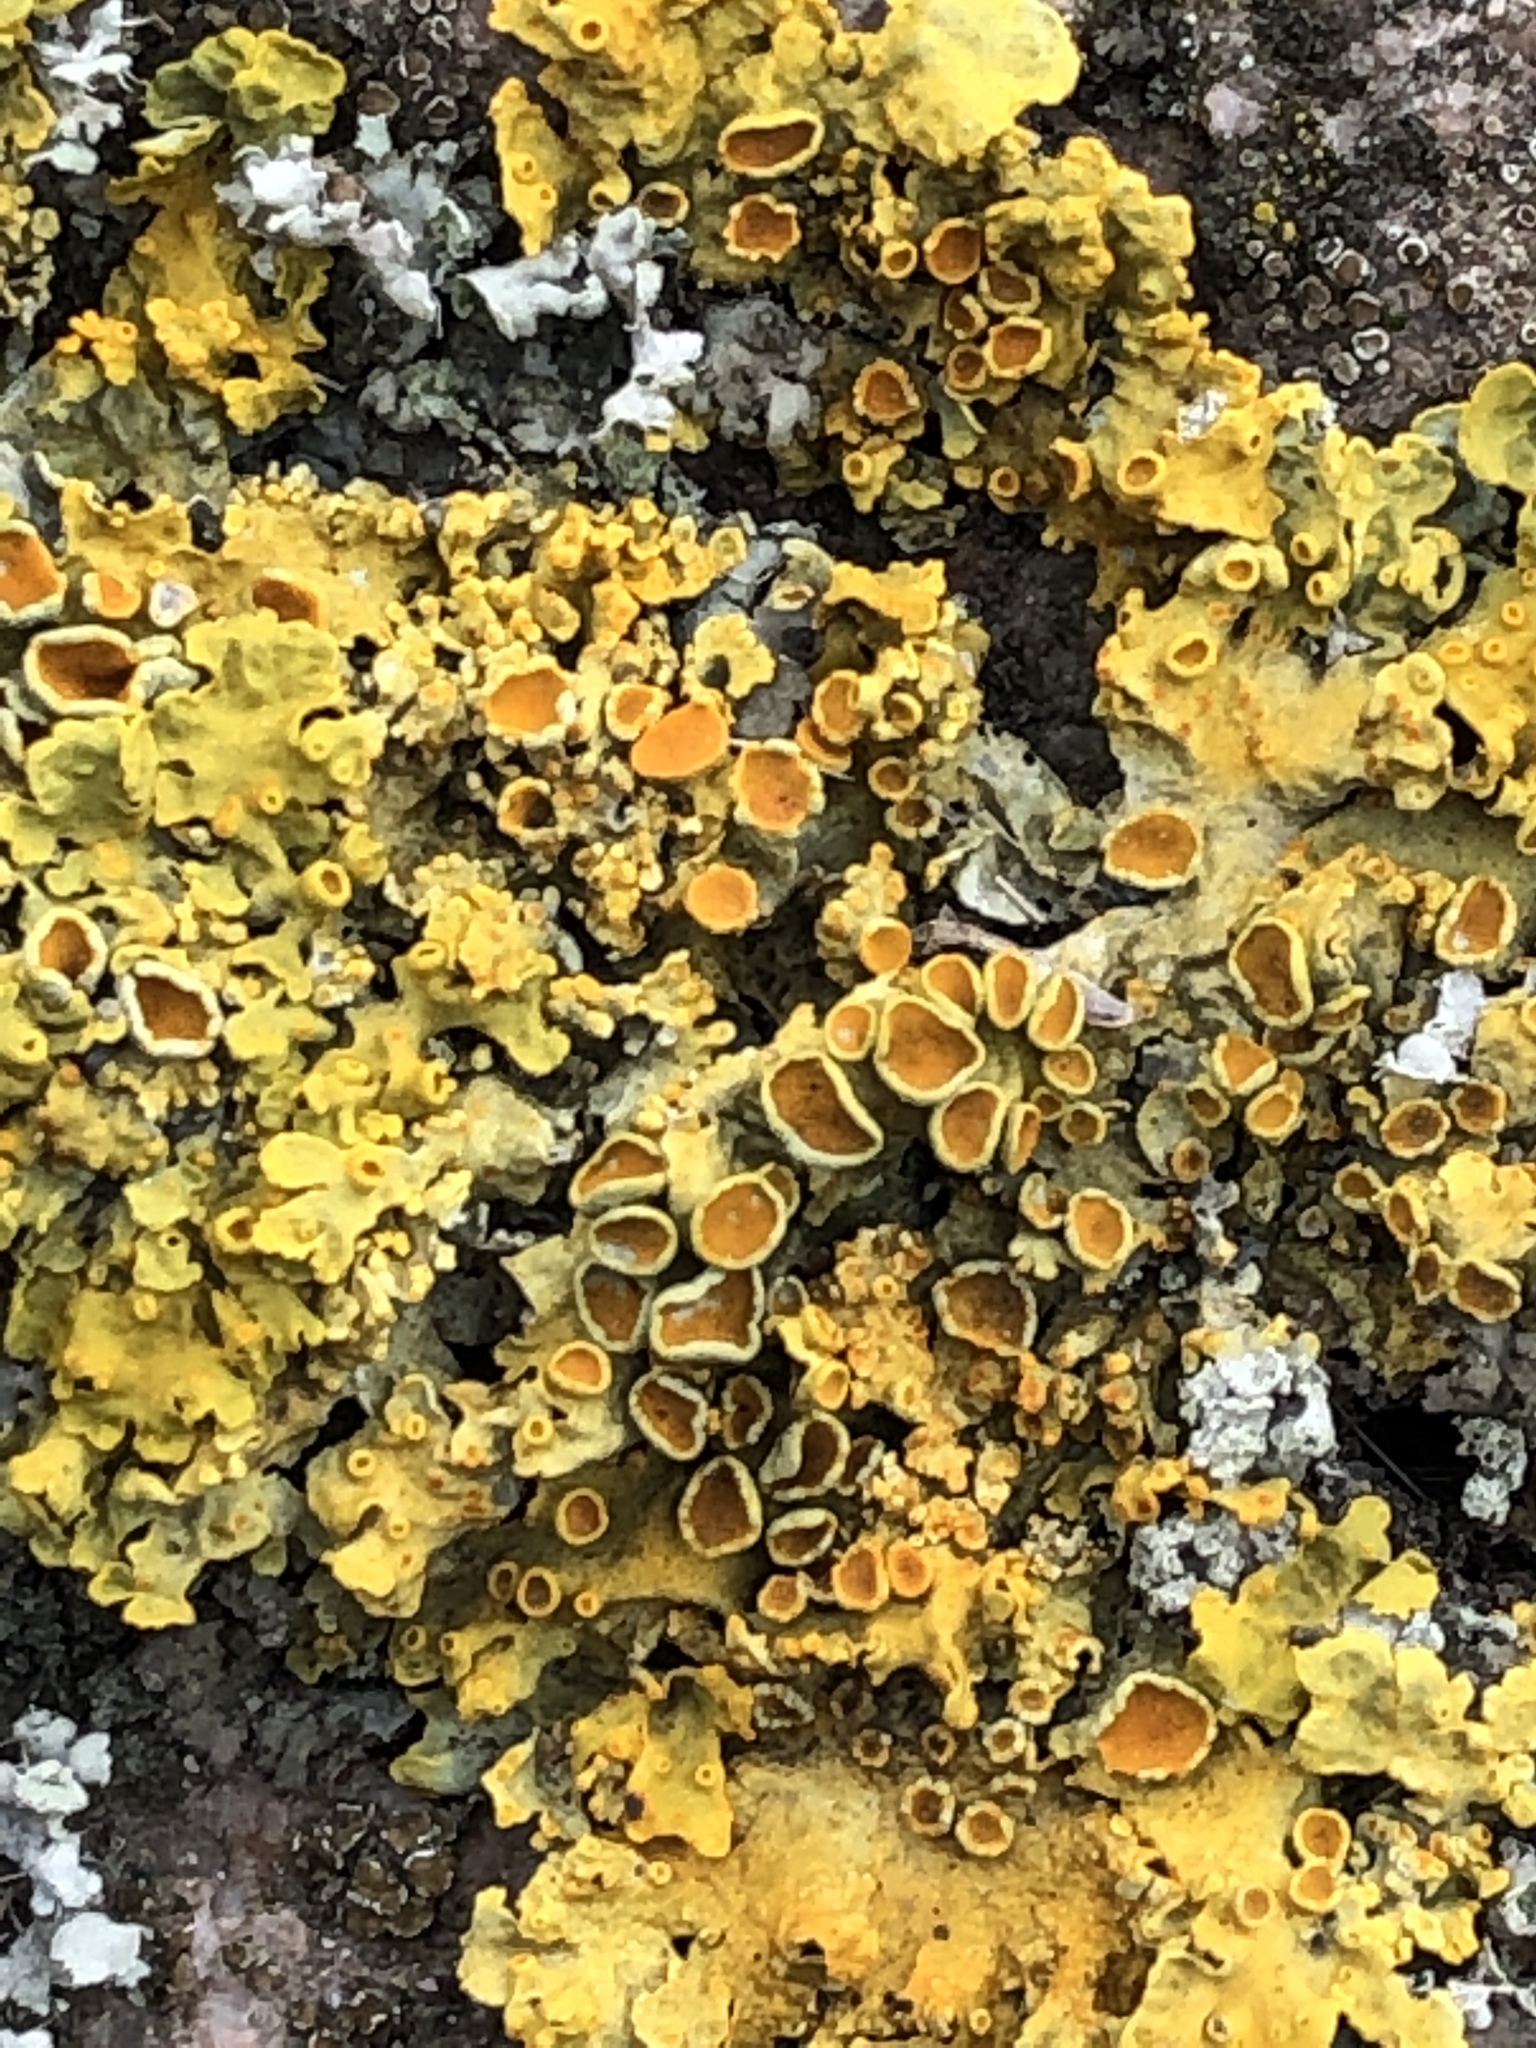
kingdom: Fungi
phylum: Ascomycota
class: Lecanoromycetes
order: Teloschistales
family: Teloschistaceae
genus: Xanthoria
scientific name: Xanthoria parietina
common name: Common orange lichen
